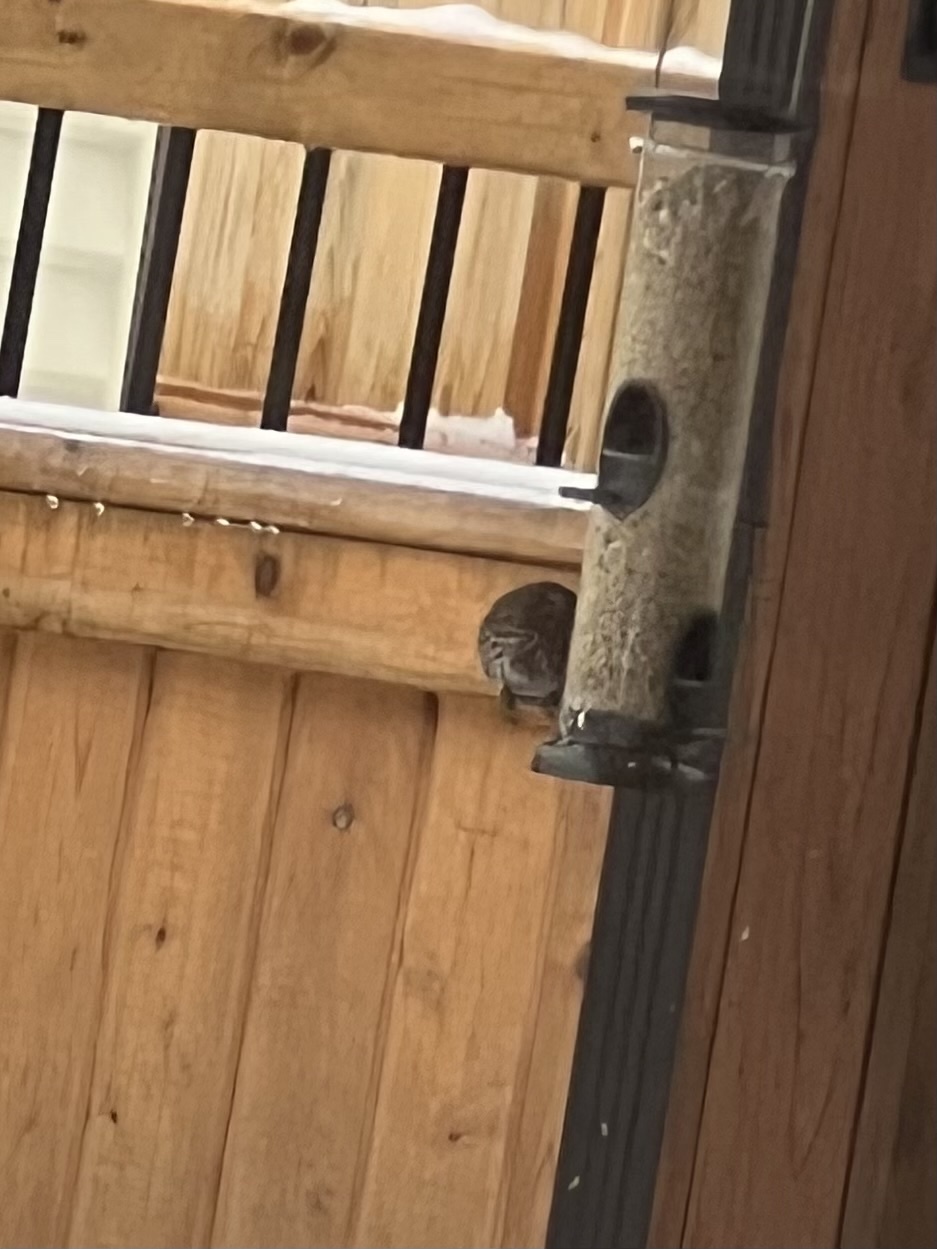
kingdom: Animalia
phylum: Chordata
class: Aves
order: Passeriformes
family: Passerellidae
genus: Melospiza
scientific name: Melospiza melodia
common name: Song sparrow
